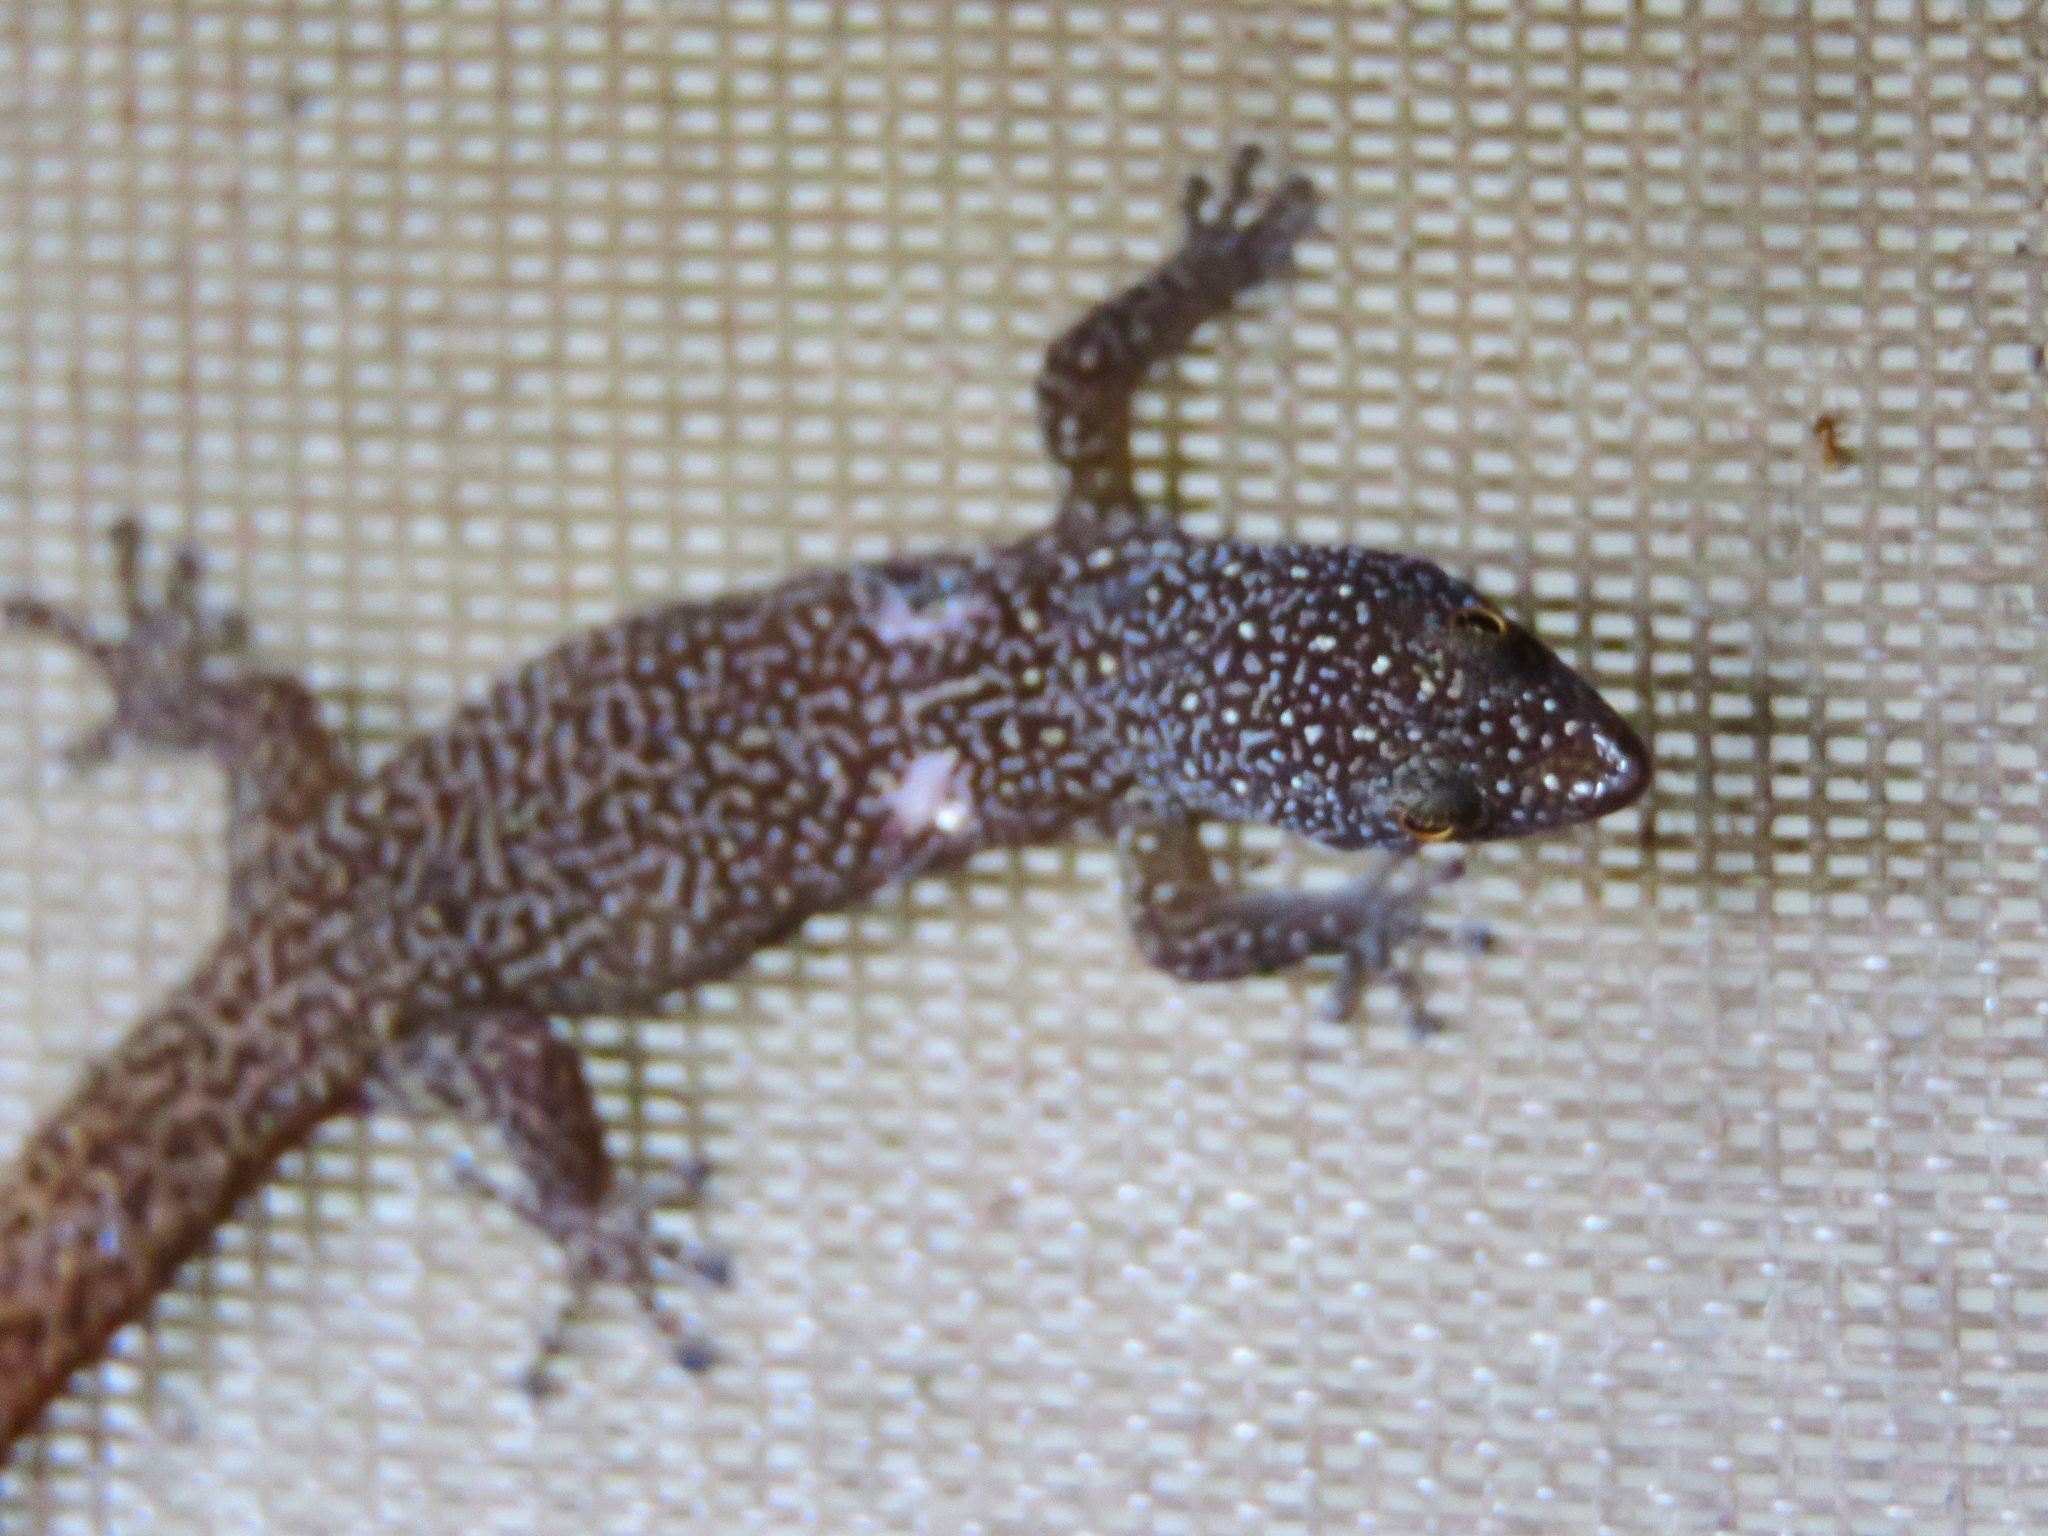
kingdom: Animalia
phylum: Chordata
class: Squamata
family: Sphaerodactylidae
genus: Sphaerodactylus
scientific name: Sphaerodactylus argus
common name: Ocellated gecko
